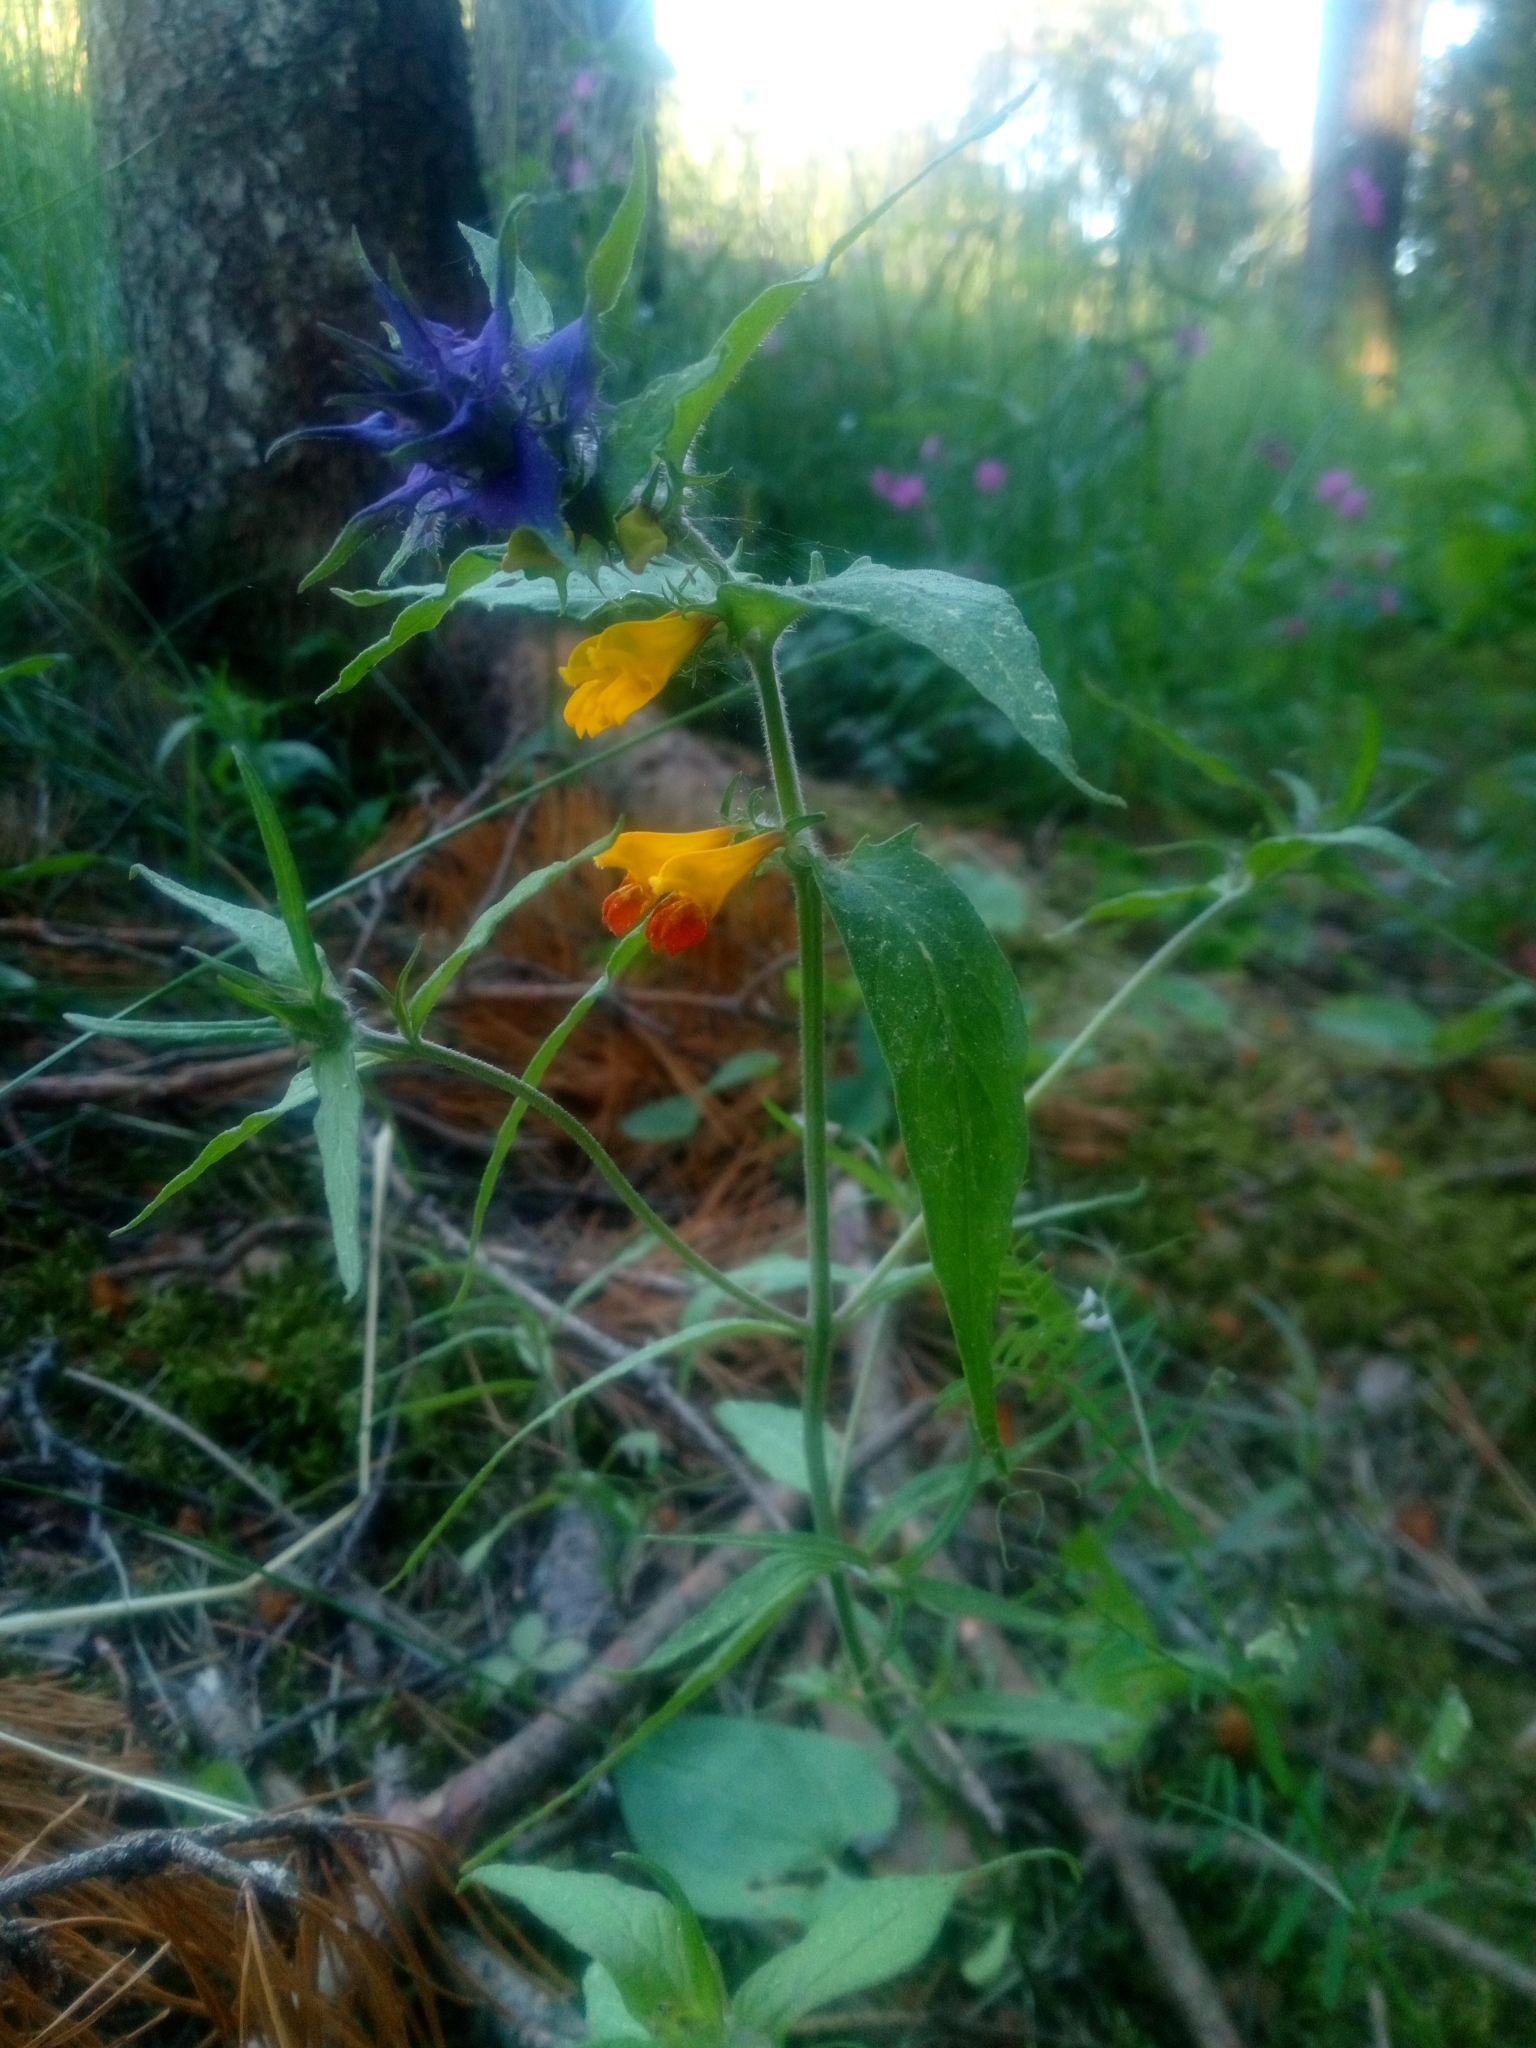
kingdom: Plantae
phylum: Tracheophyta
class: Magnoliopsida
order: Lamiales
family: Orobanchaceae
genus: Melampyrum
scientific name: Melampyrum nemorosum
